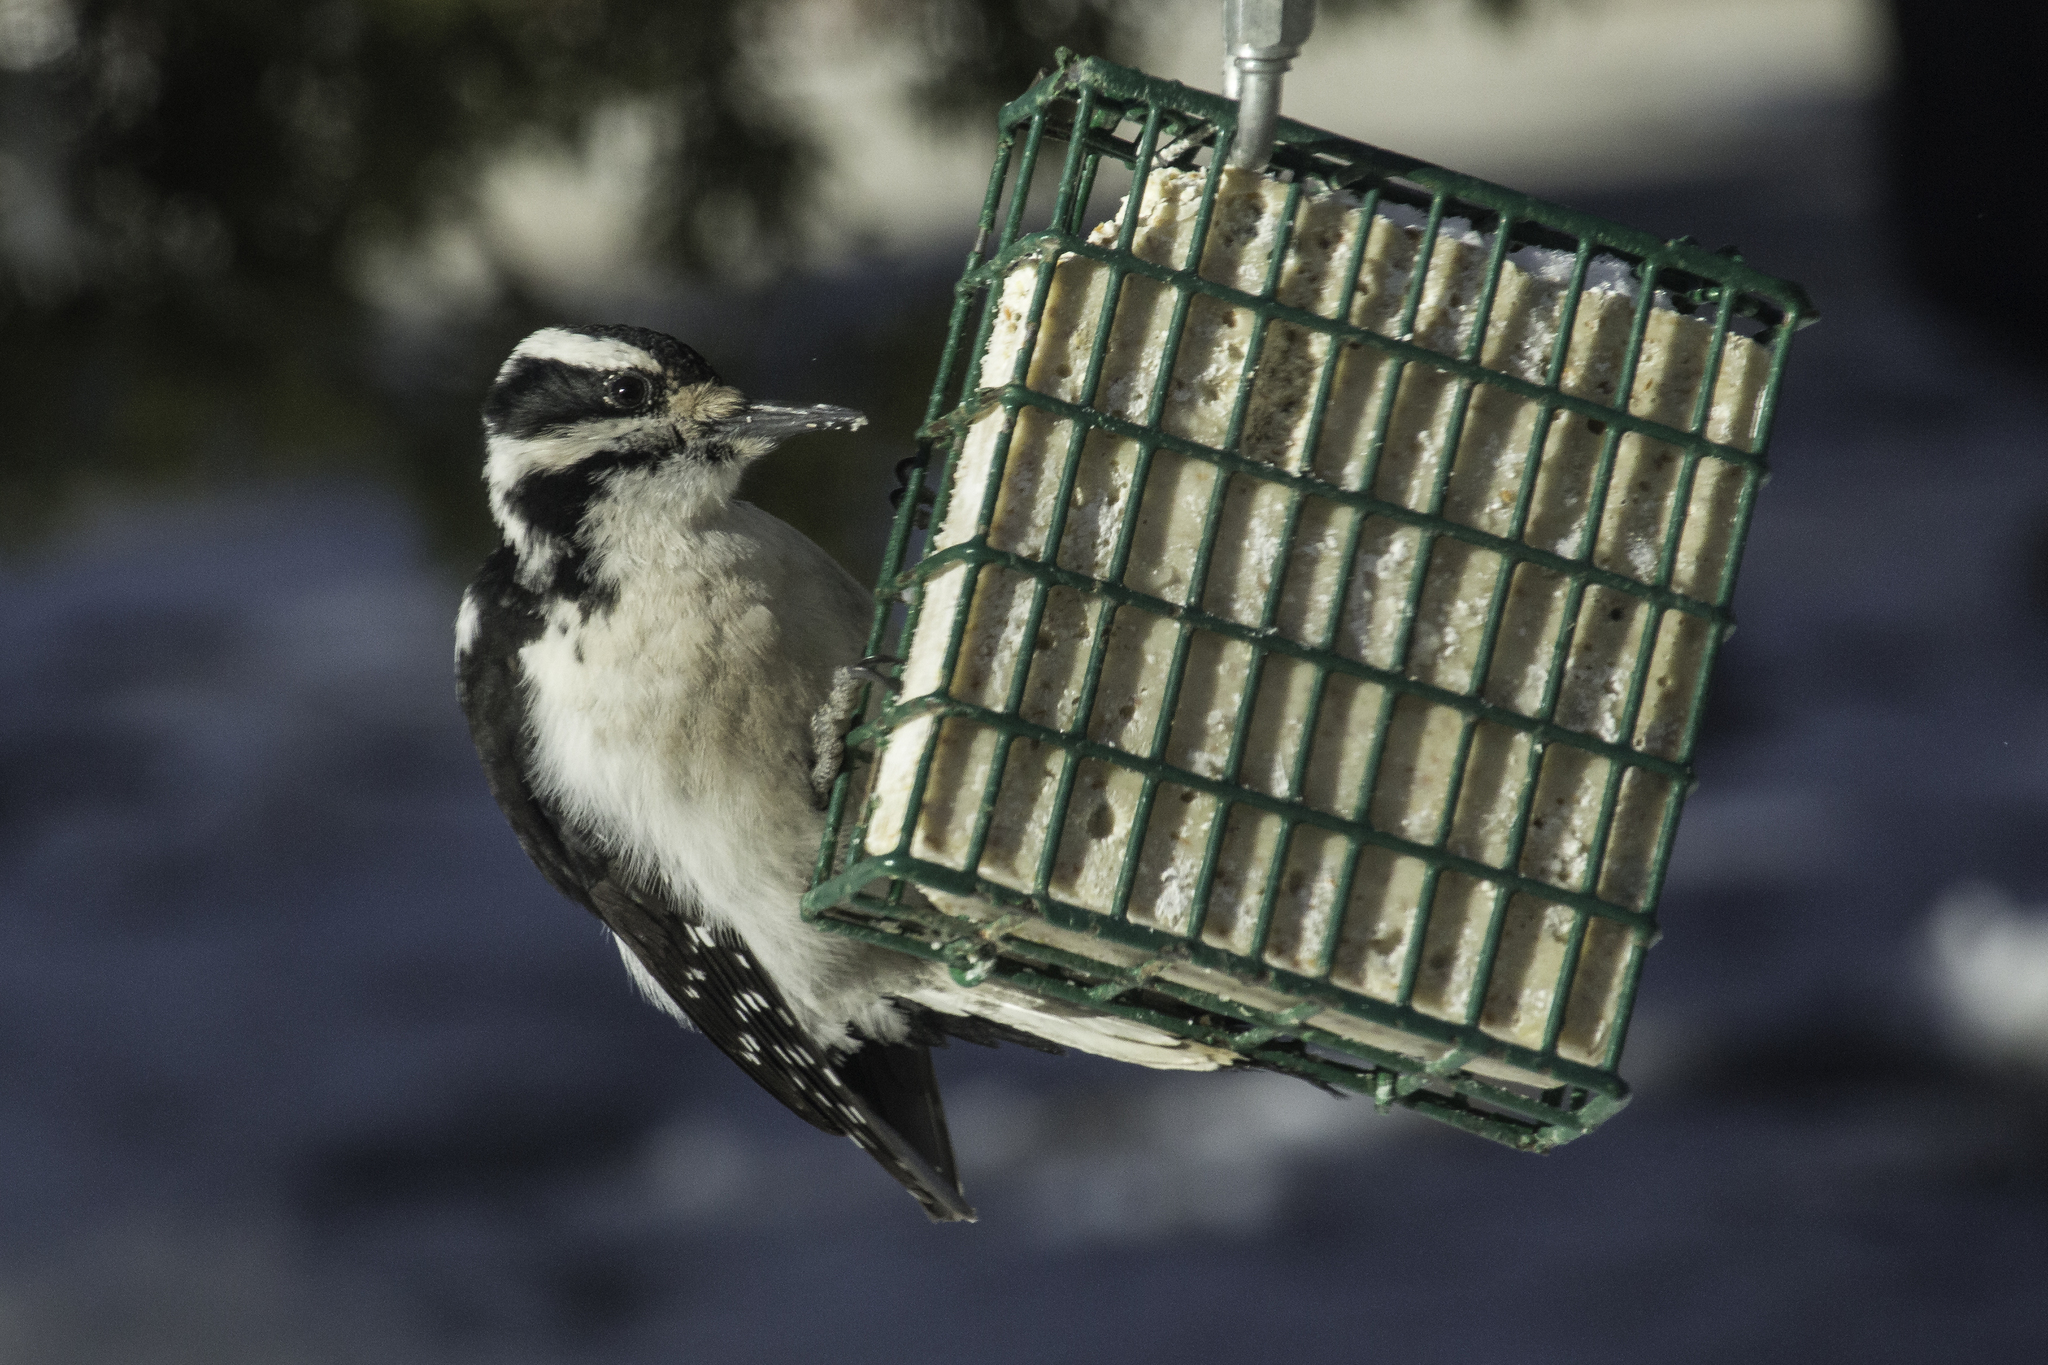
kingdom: Animalia
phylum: Chordata
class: Aves
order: Piciformes
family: Picidae
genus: Leuconotopicus
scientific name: Leuconotopicus villosus
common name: Hairy woodpecker
